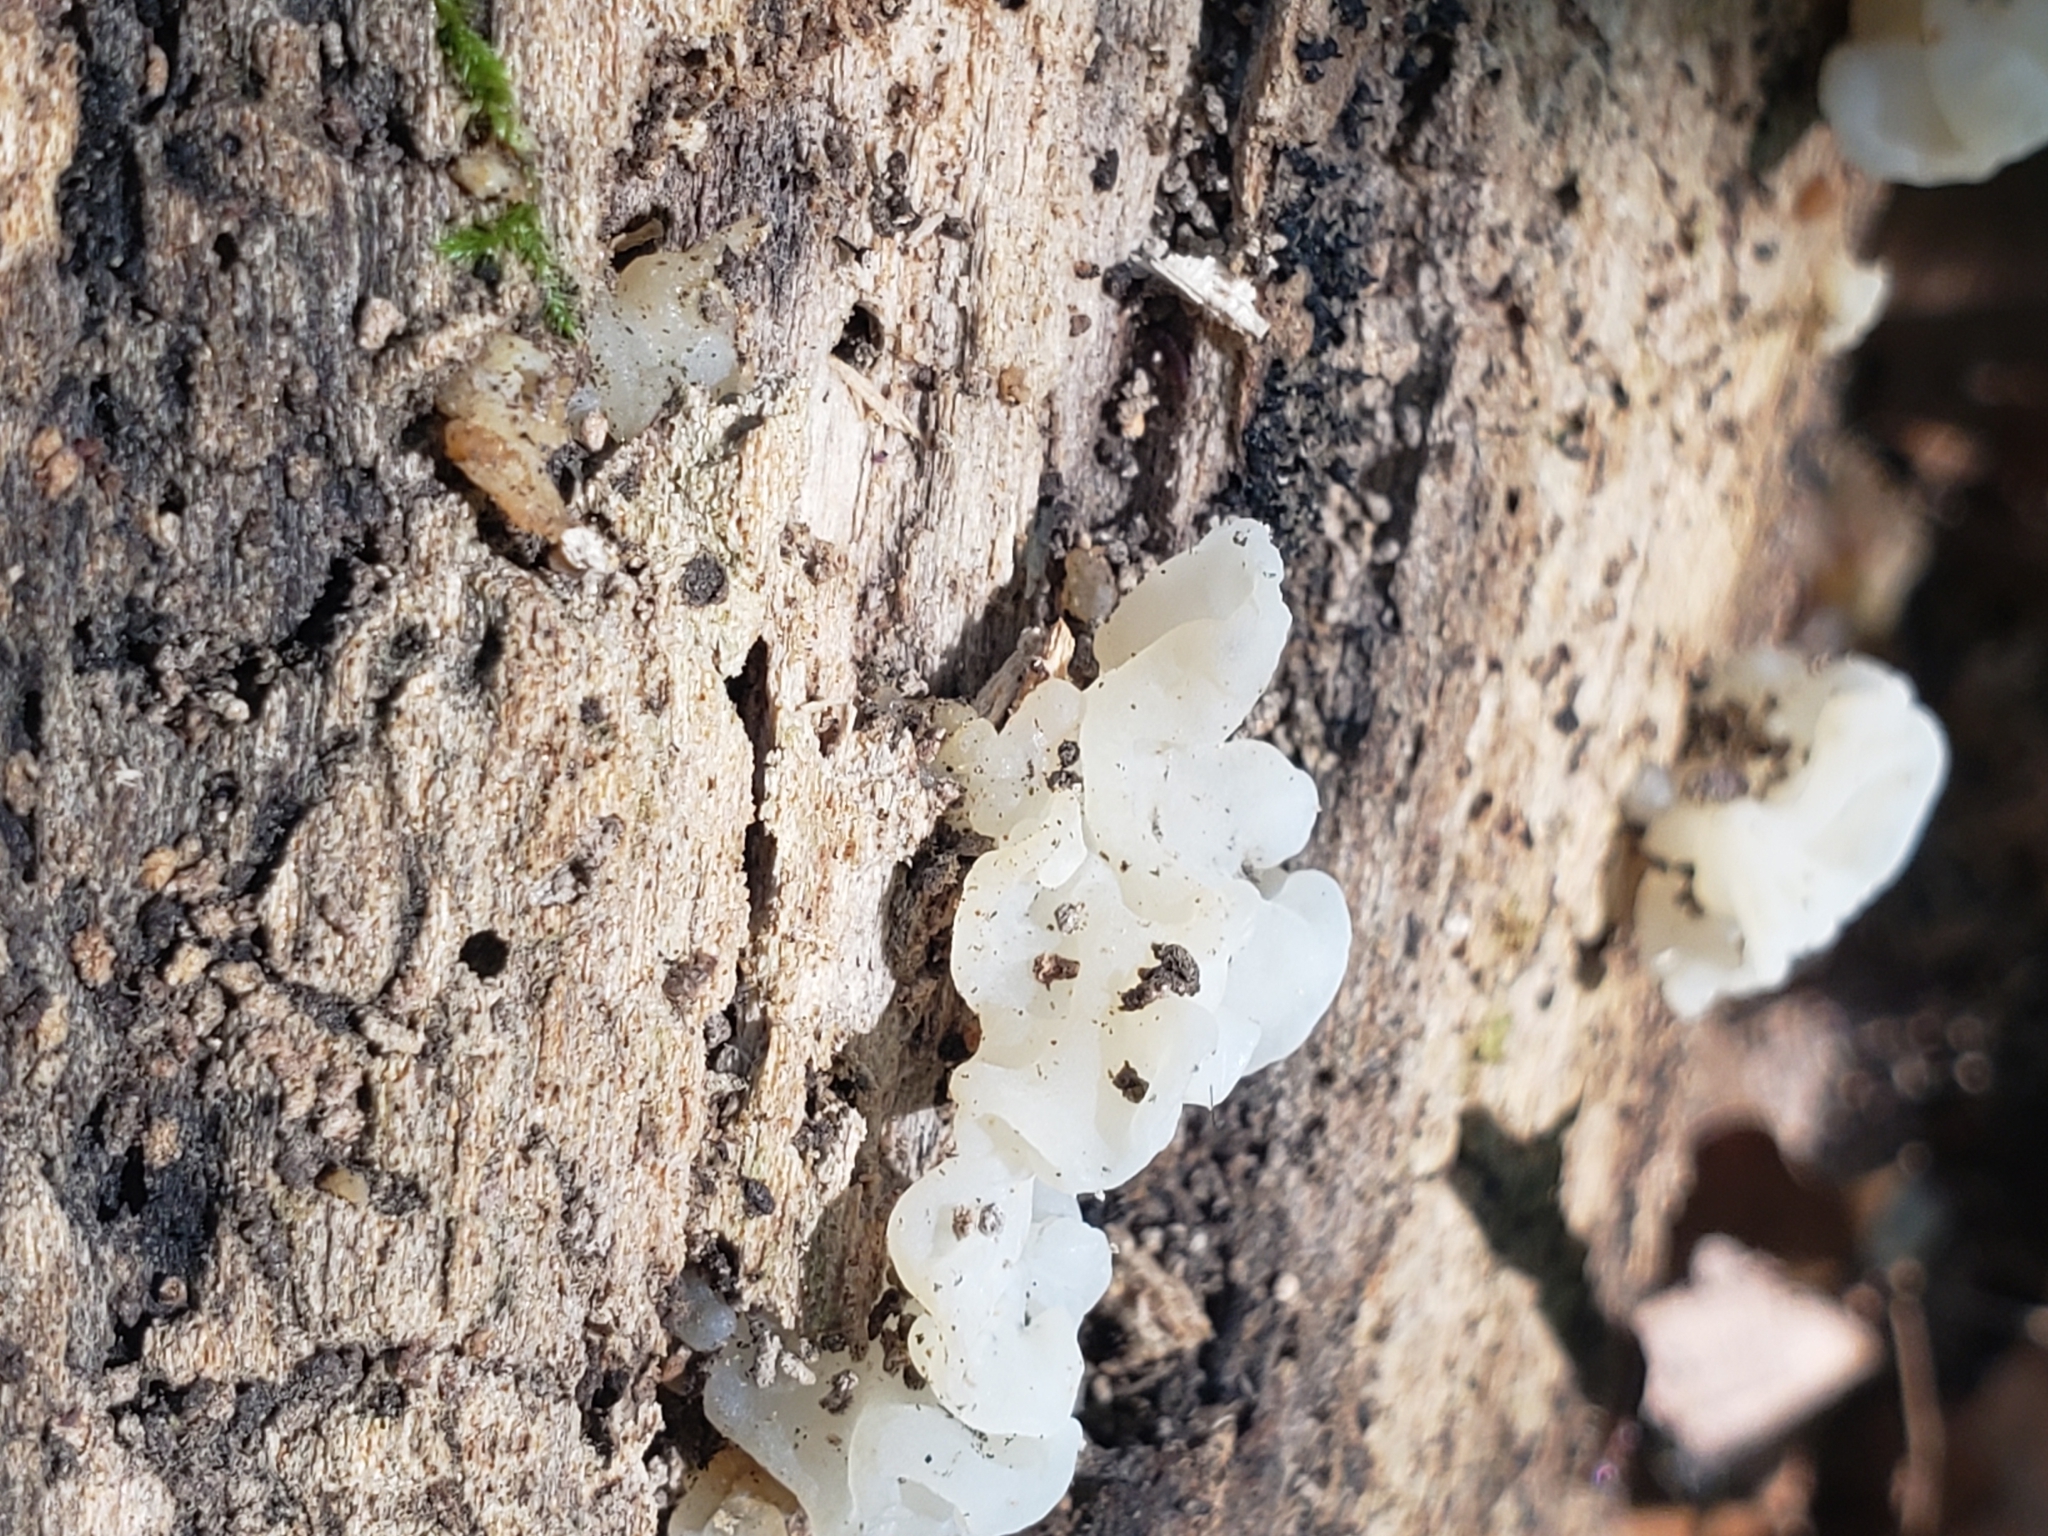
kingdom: Fungi
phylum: Basidiomycota
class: Agaricomycetes
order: Auriculariales
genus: Ductifera
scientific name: Ductifera pululahuana
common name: White jelly fungus
